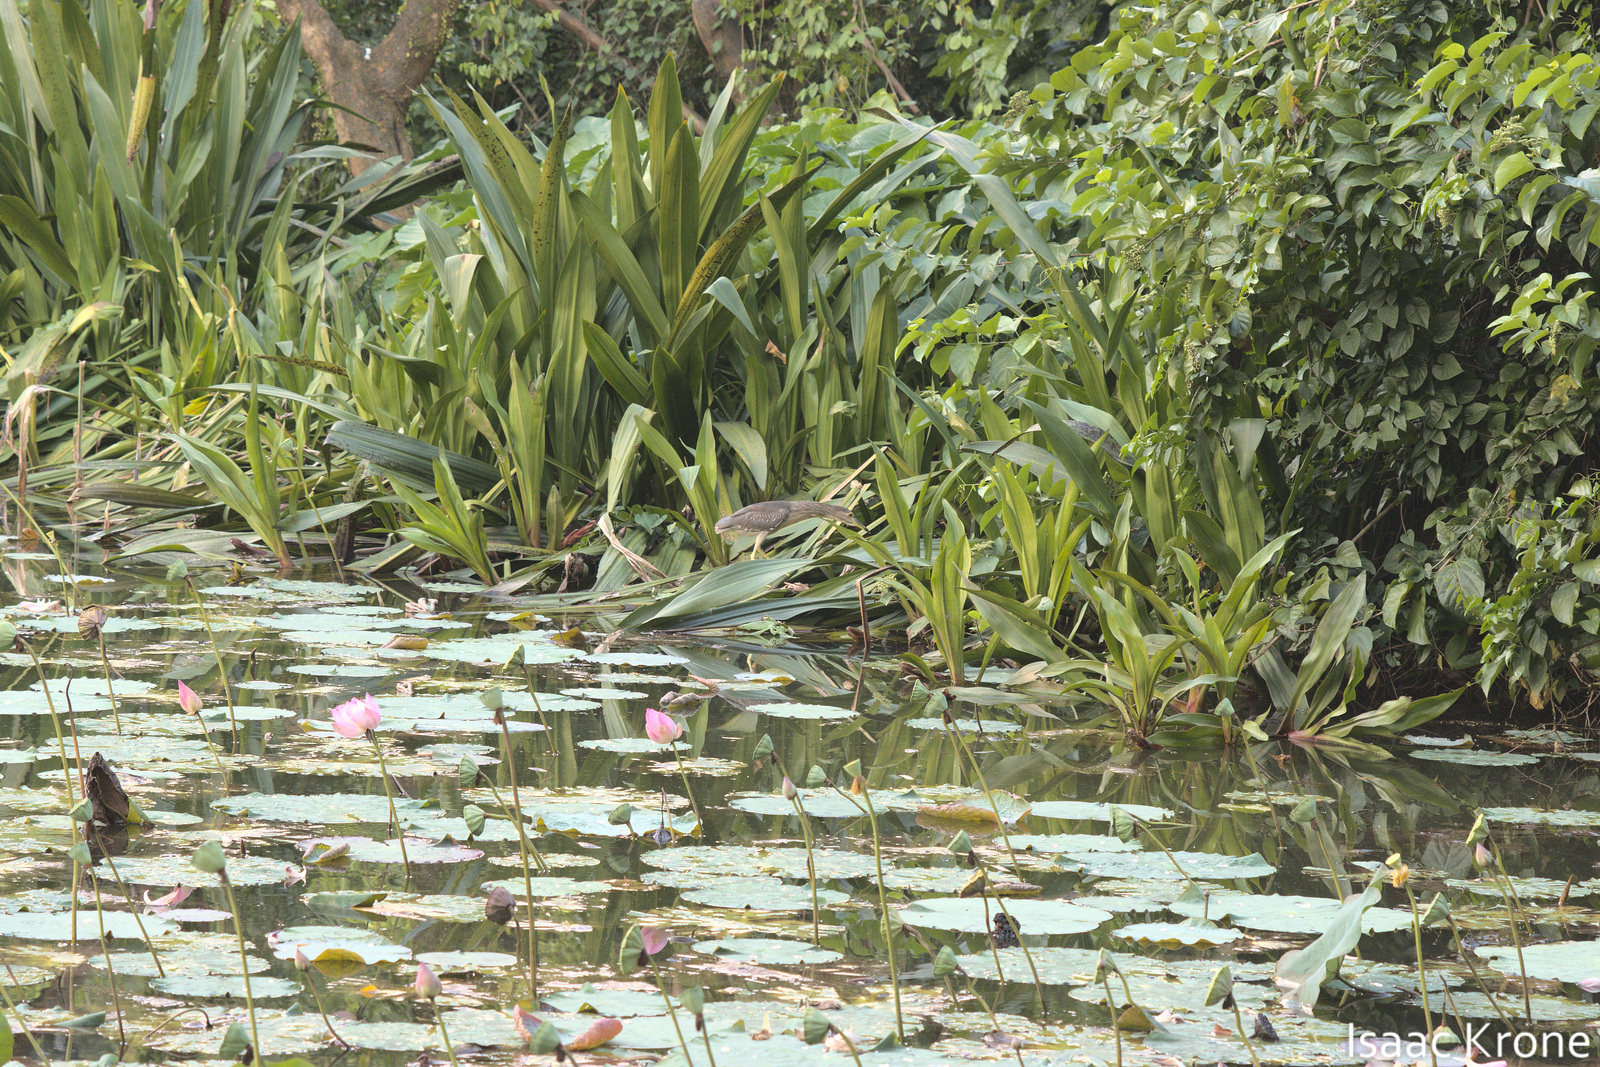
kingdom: Animalia
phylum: Chordata
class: Aves
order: Pelecaniformes
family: Ardeidae
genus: Nycticorax
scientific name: Nycticorax nycticorax
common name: Black-crowned night heron
